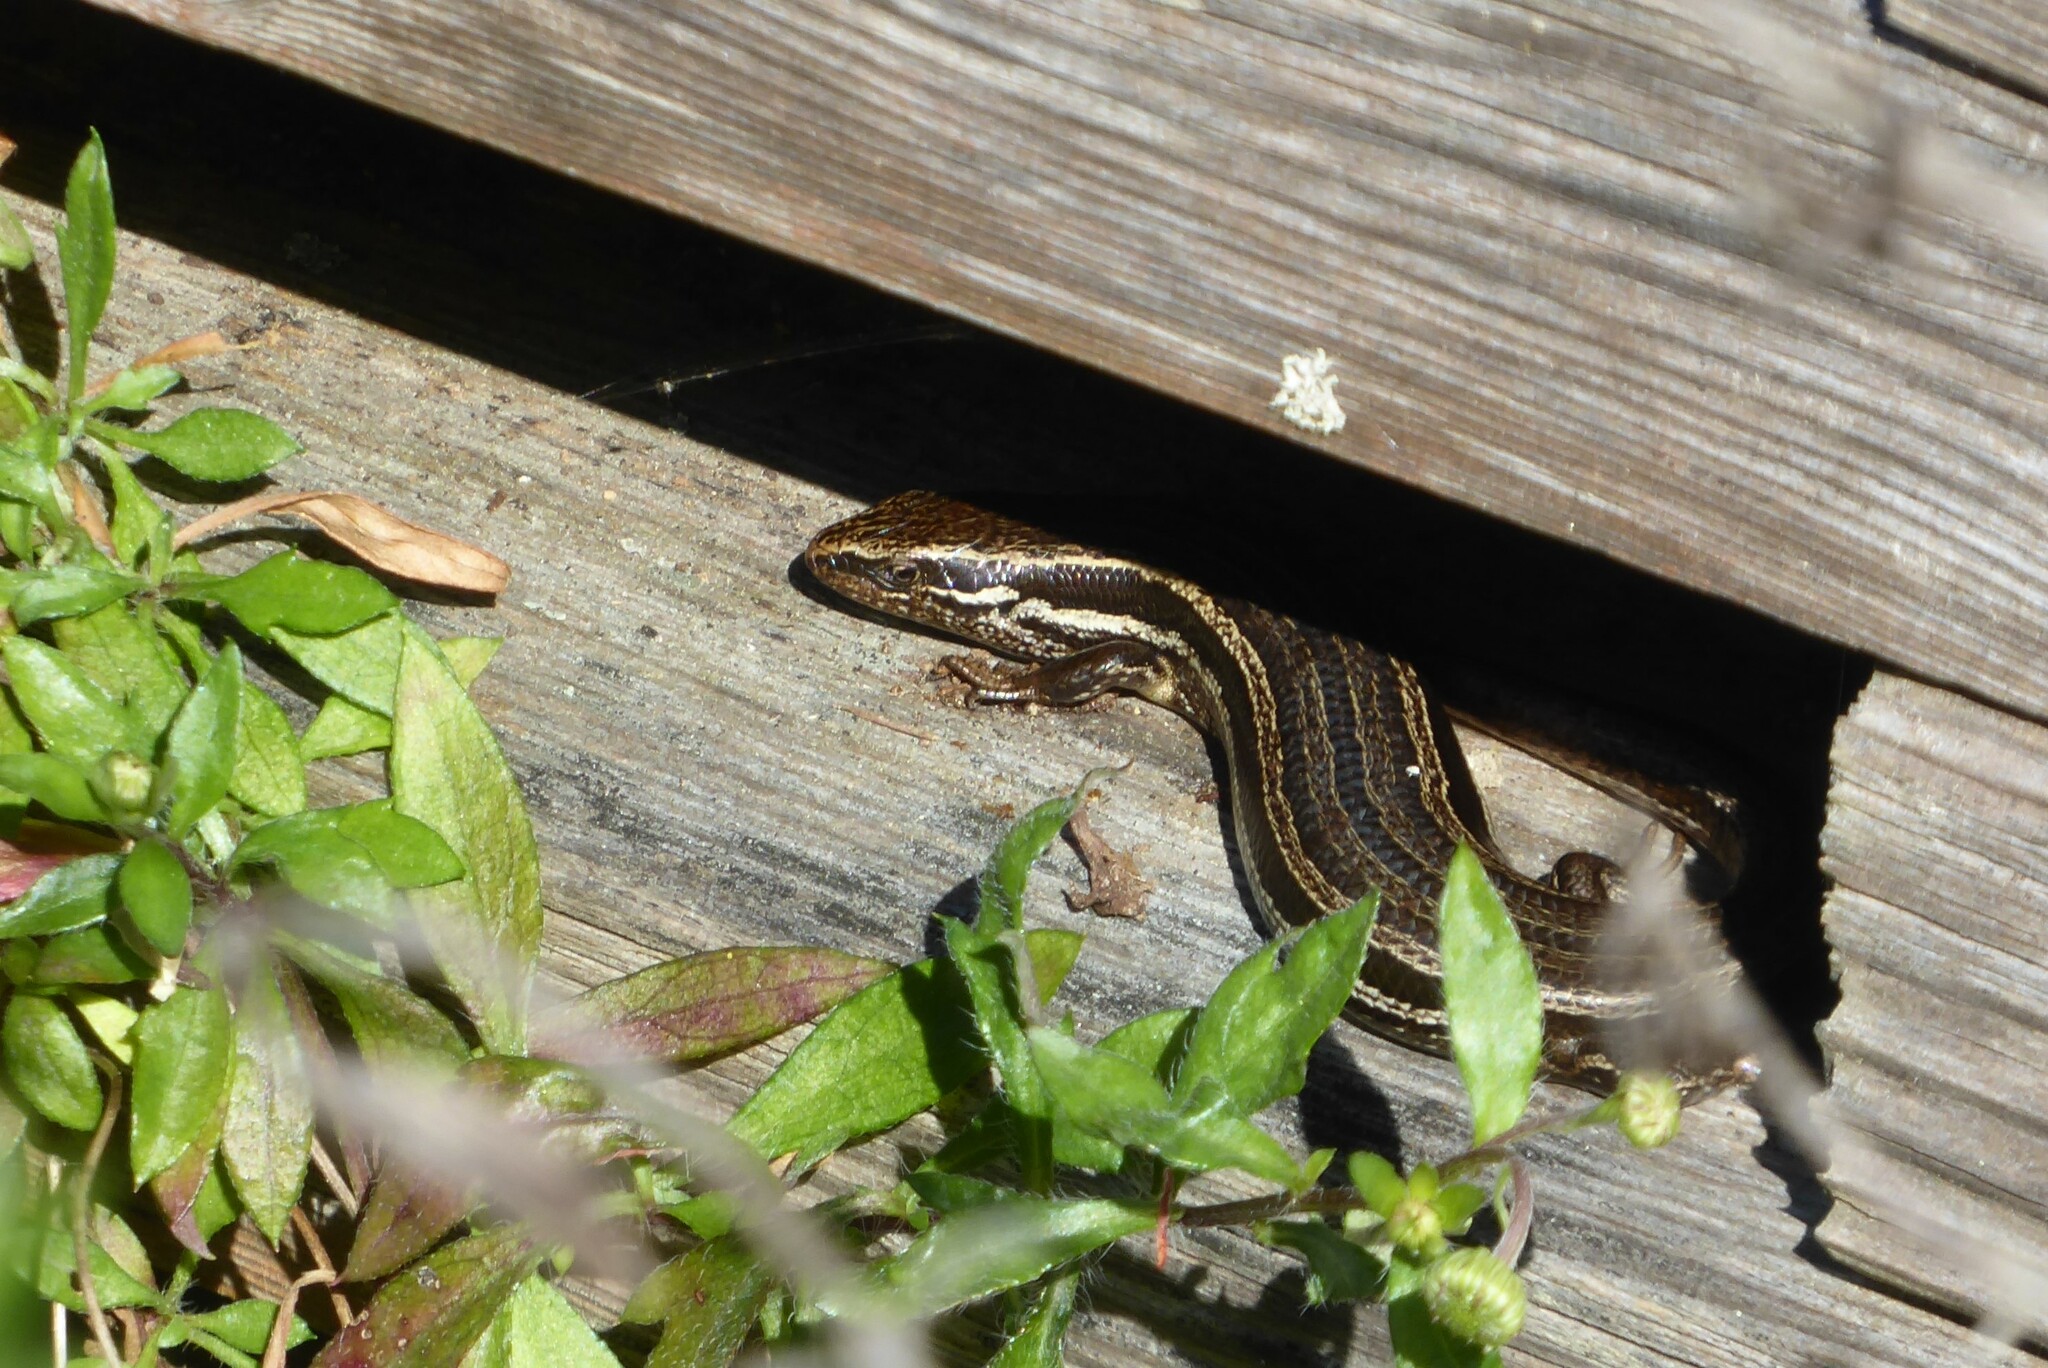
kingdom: Animalia
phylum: Chordata
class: Squamata
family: Scincidae
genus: Oligosoma
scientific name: Oligosoma polychroma
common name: Common new zealand skink
